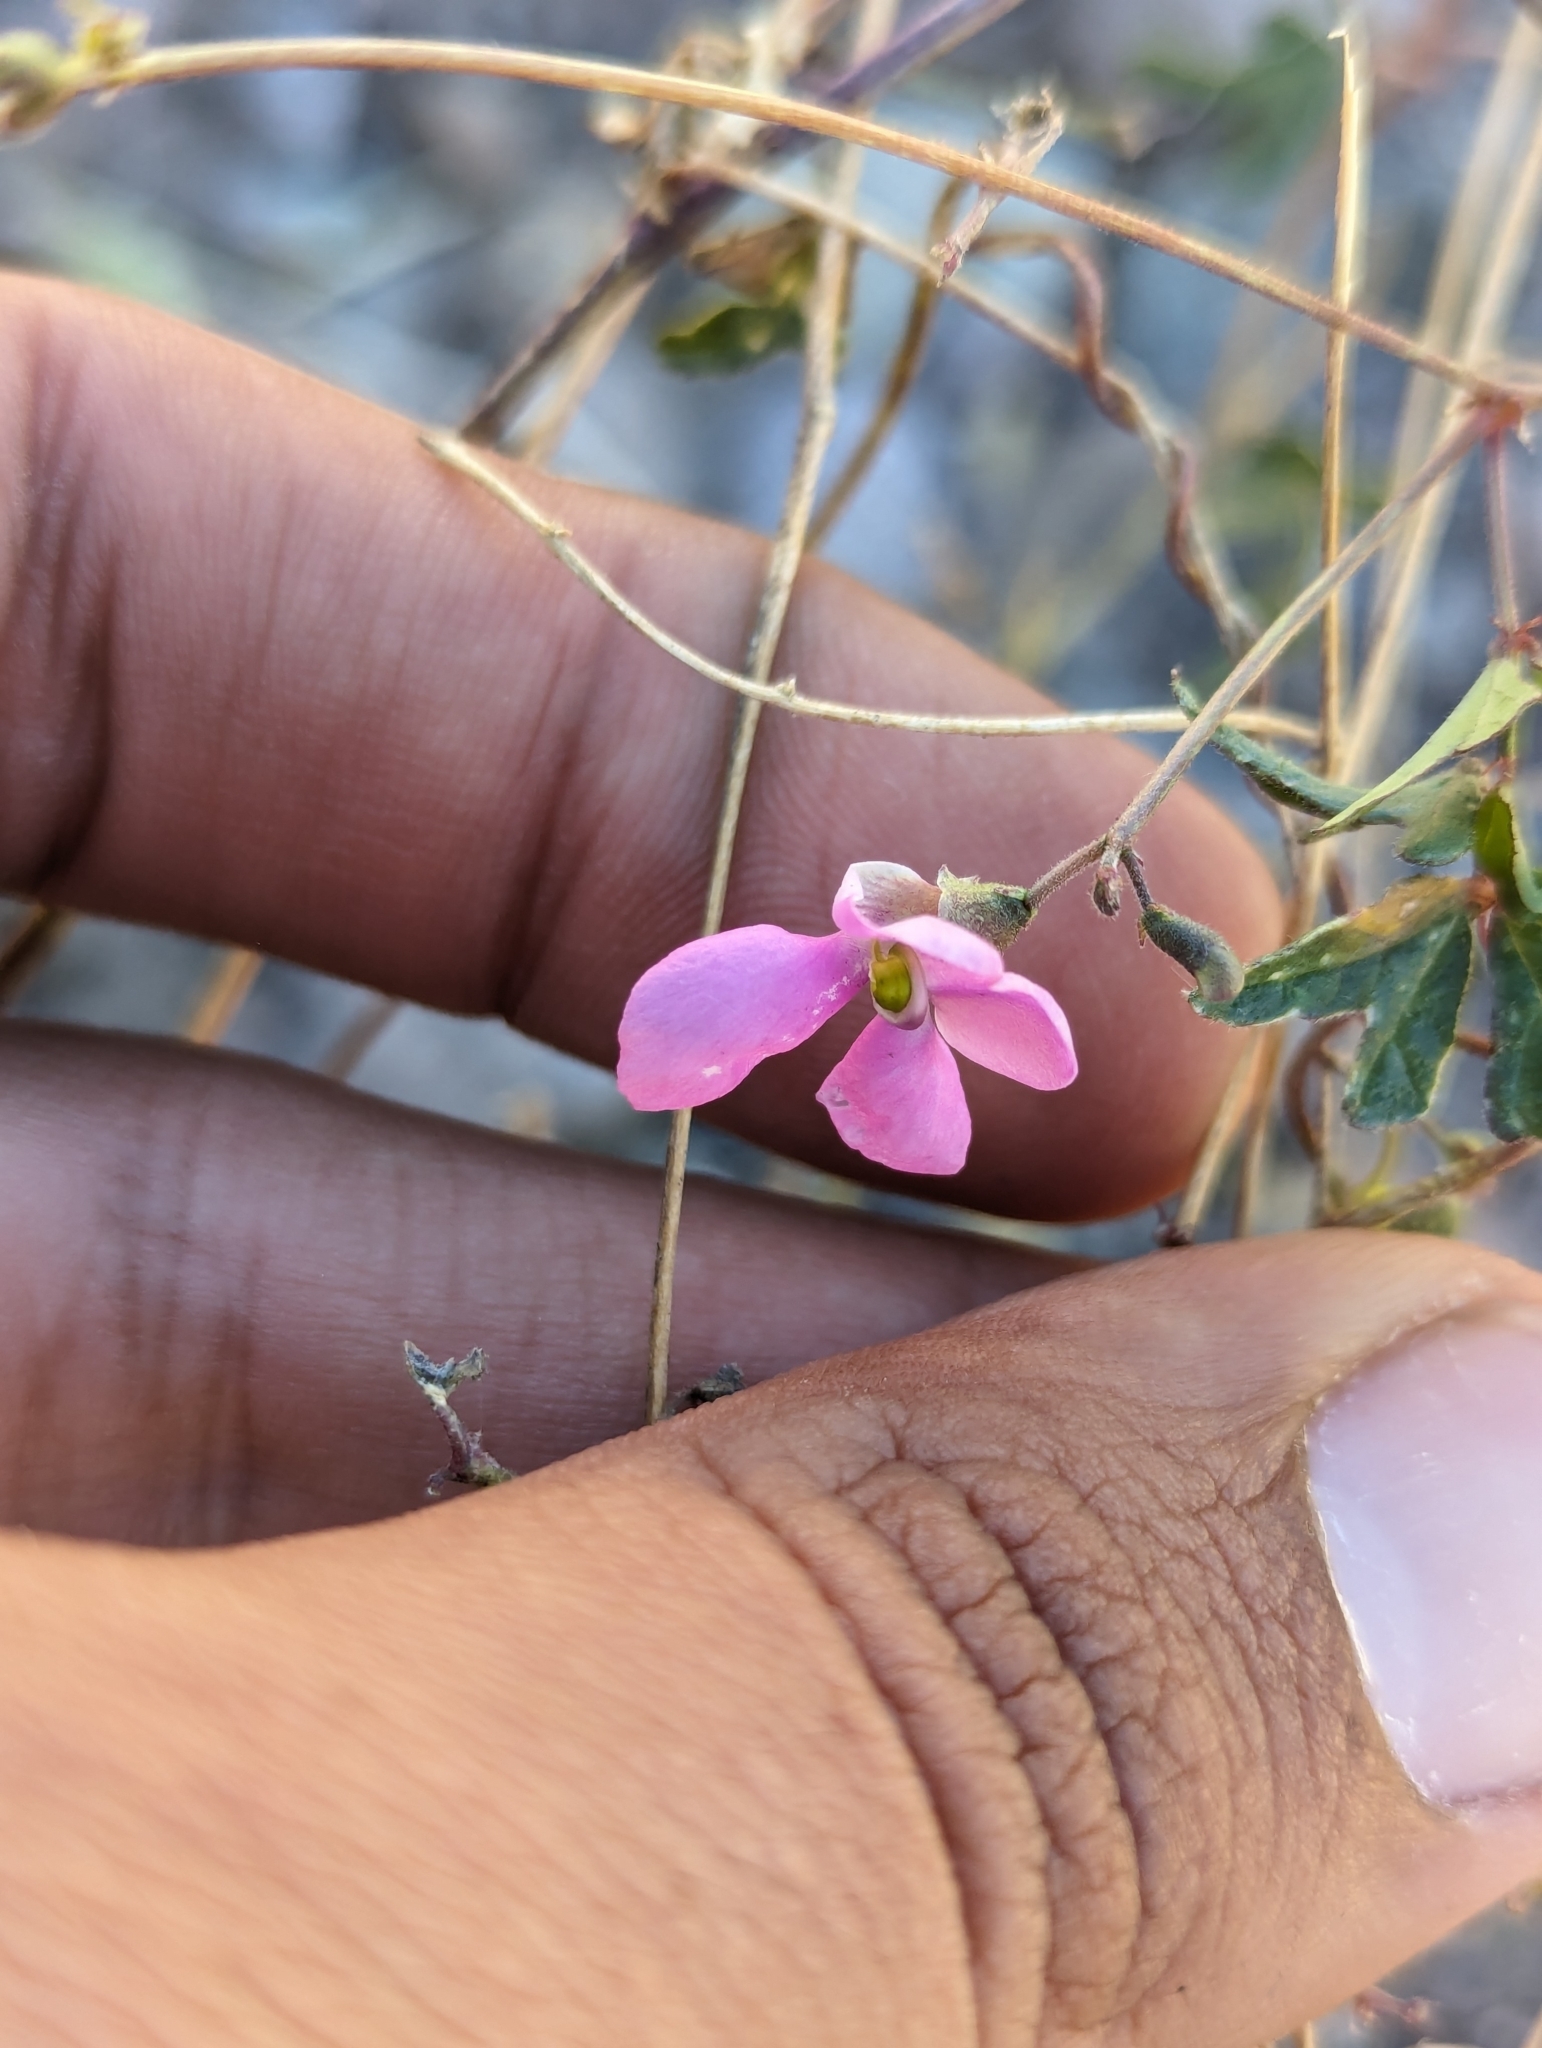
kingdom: Plantae
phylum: Tracheophyta
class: Magnoliopsida
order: Fabales
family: Fabaceae
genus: Phaseolus
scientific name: Phaseolus filiformis
